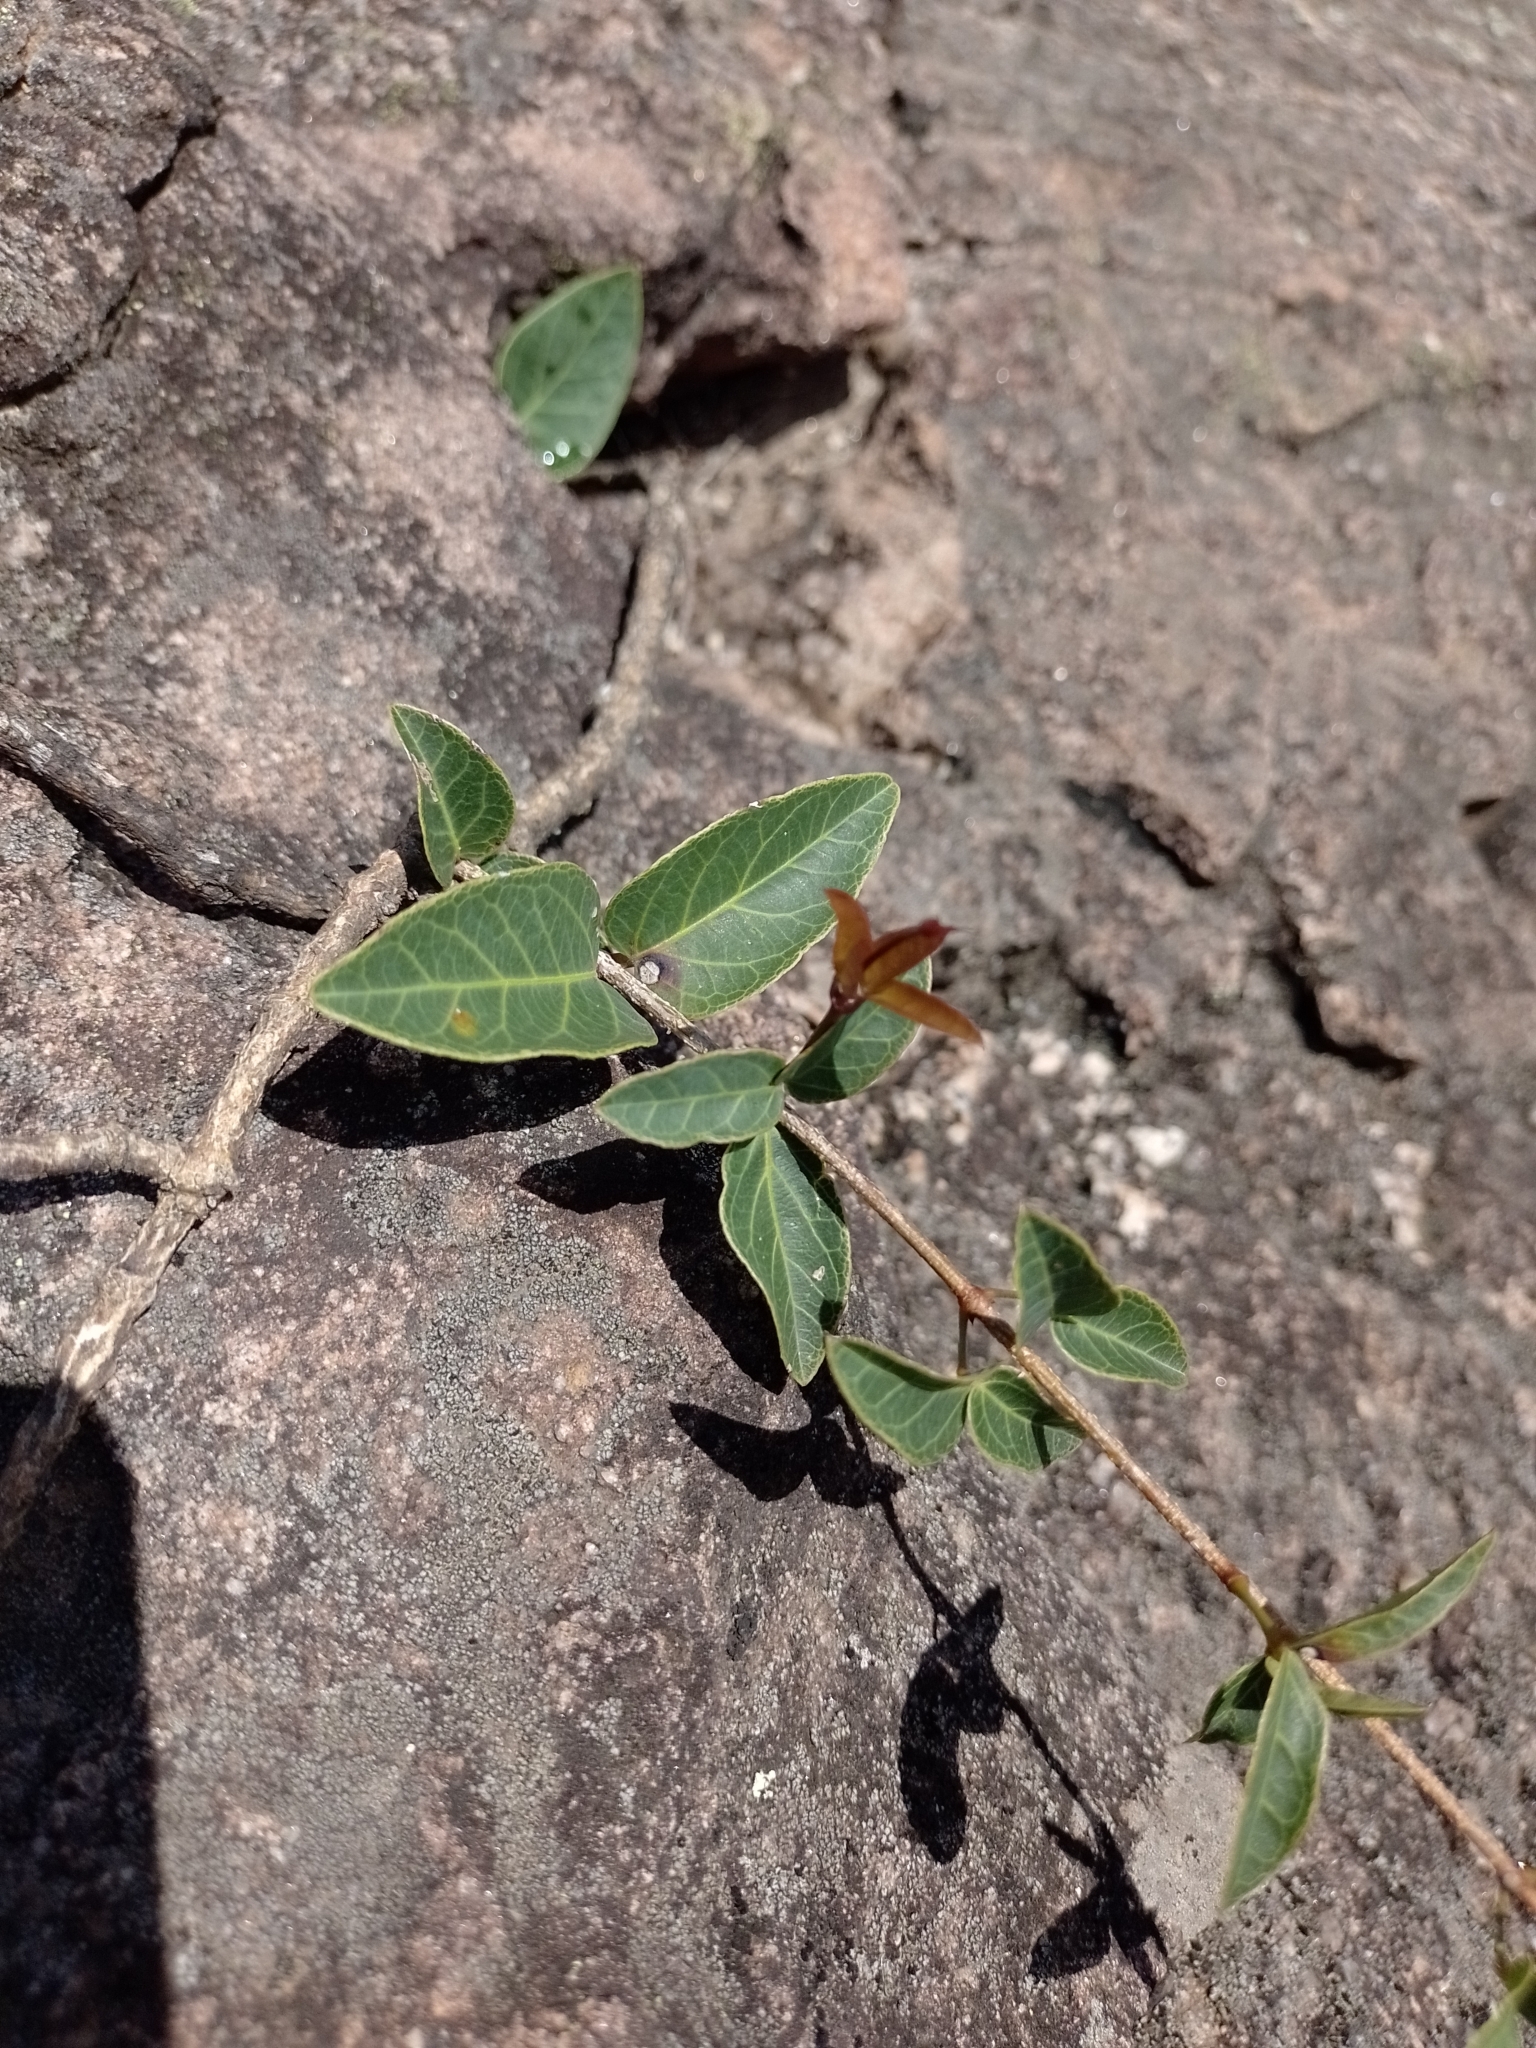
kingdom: Plantae
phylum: Tracheophyta
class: Magnoliopsida
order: Lamiales
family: Bignoniaceae
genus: Dolichandra
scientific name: Dolichandra cynanchoides
